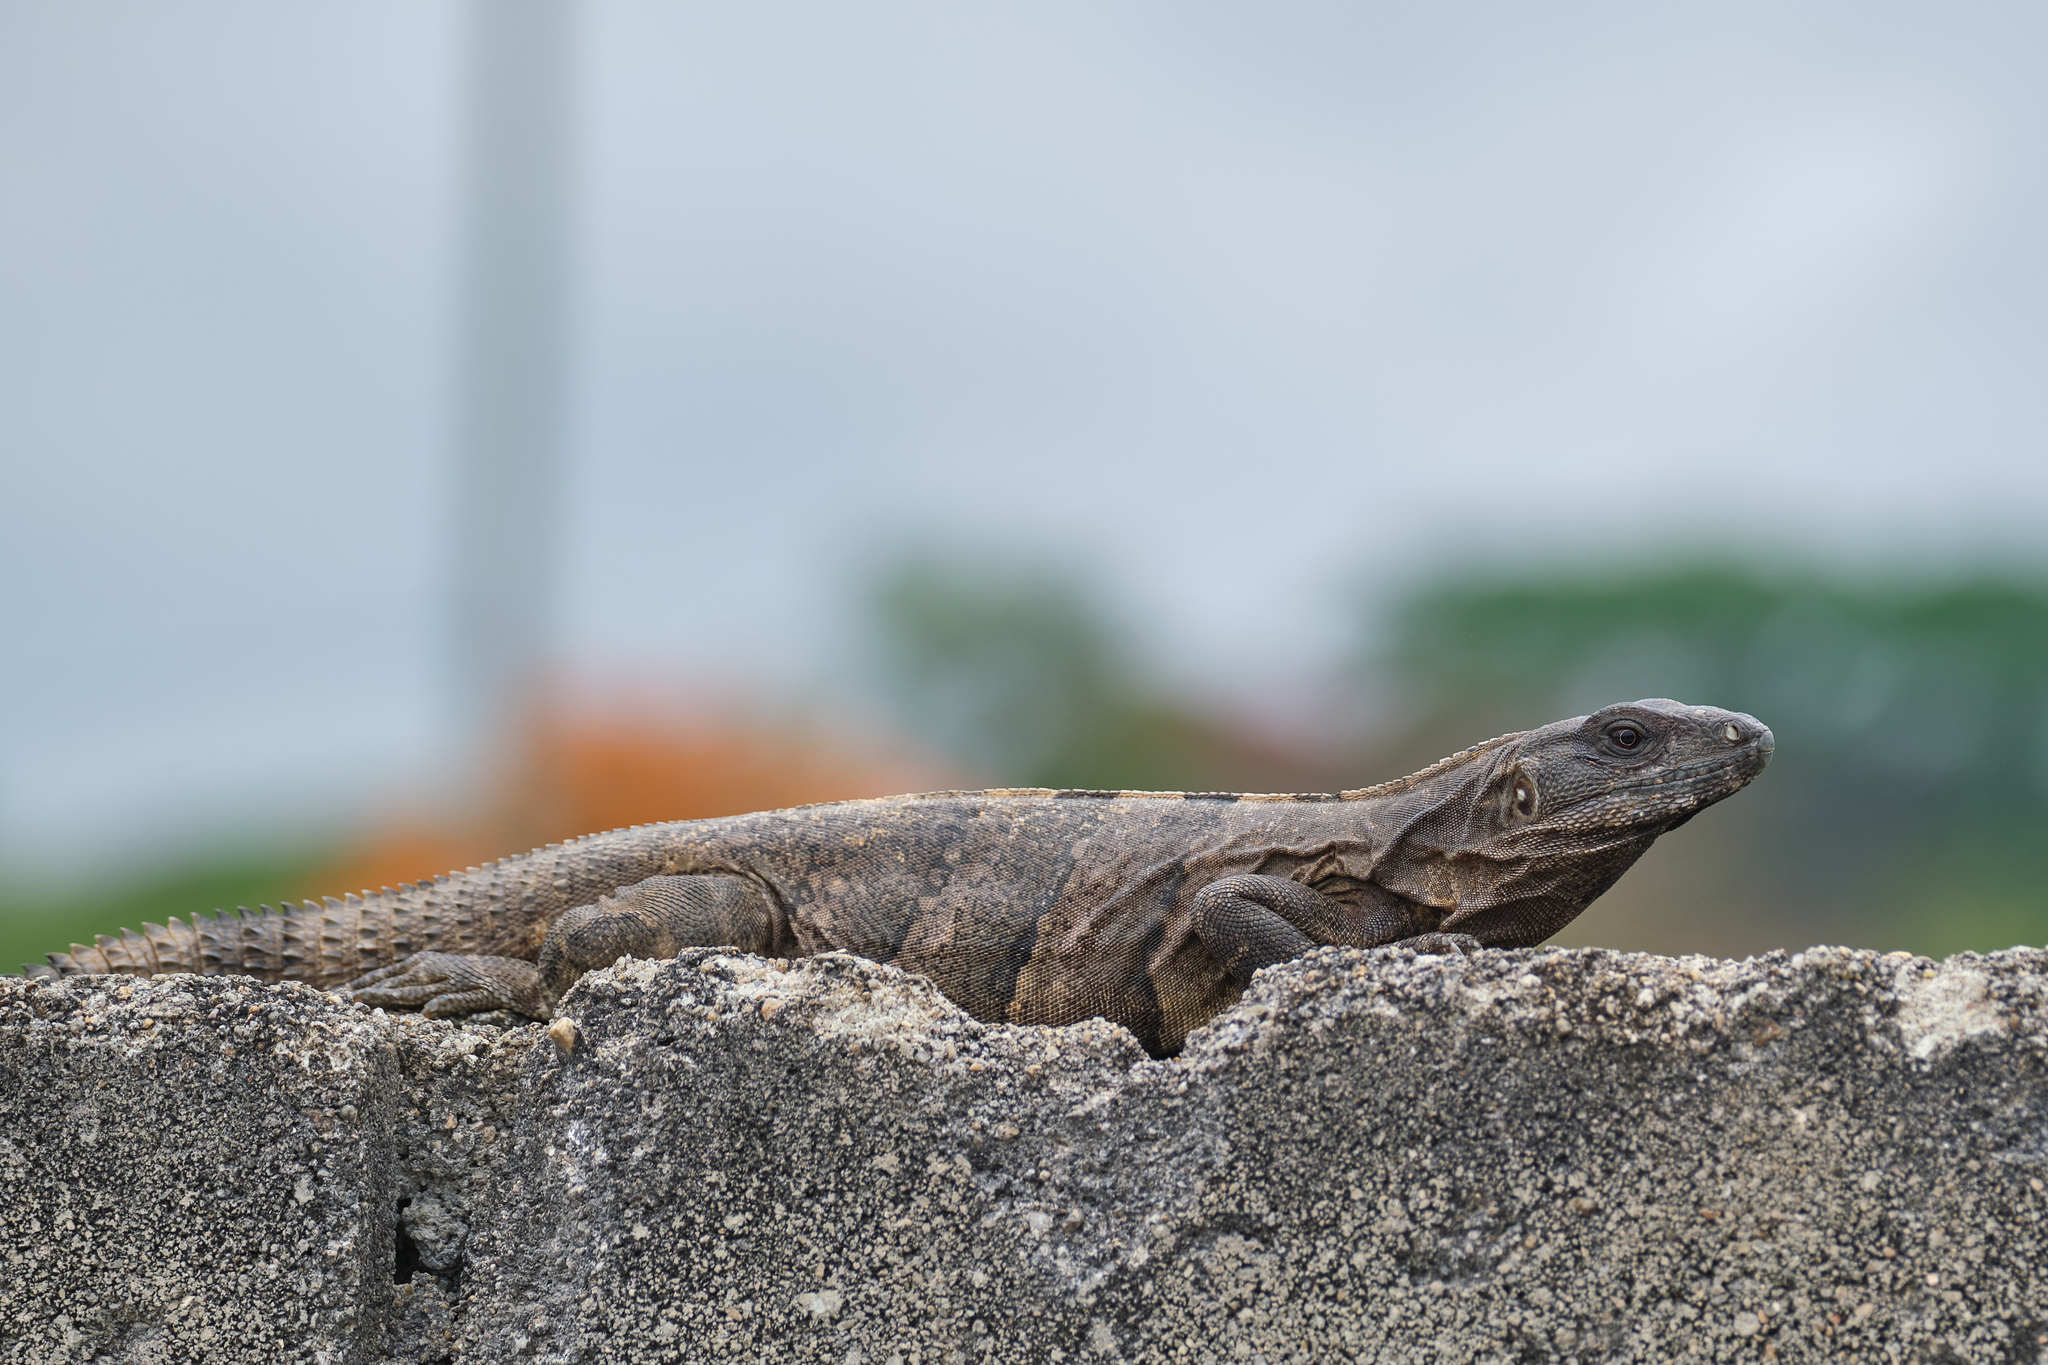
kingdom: Animalia
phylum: Chordata
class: Squamata
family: Iguanidae
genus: Ctenosaura
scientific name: Ctenosaura similis
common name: Black spiny-tailed iguana
